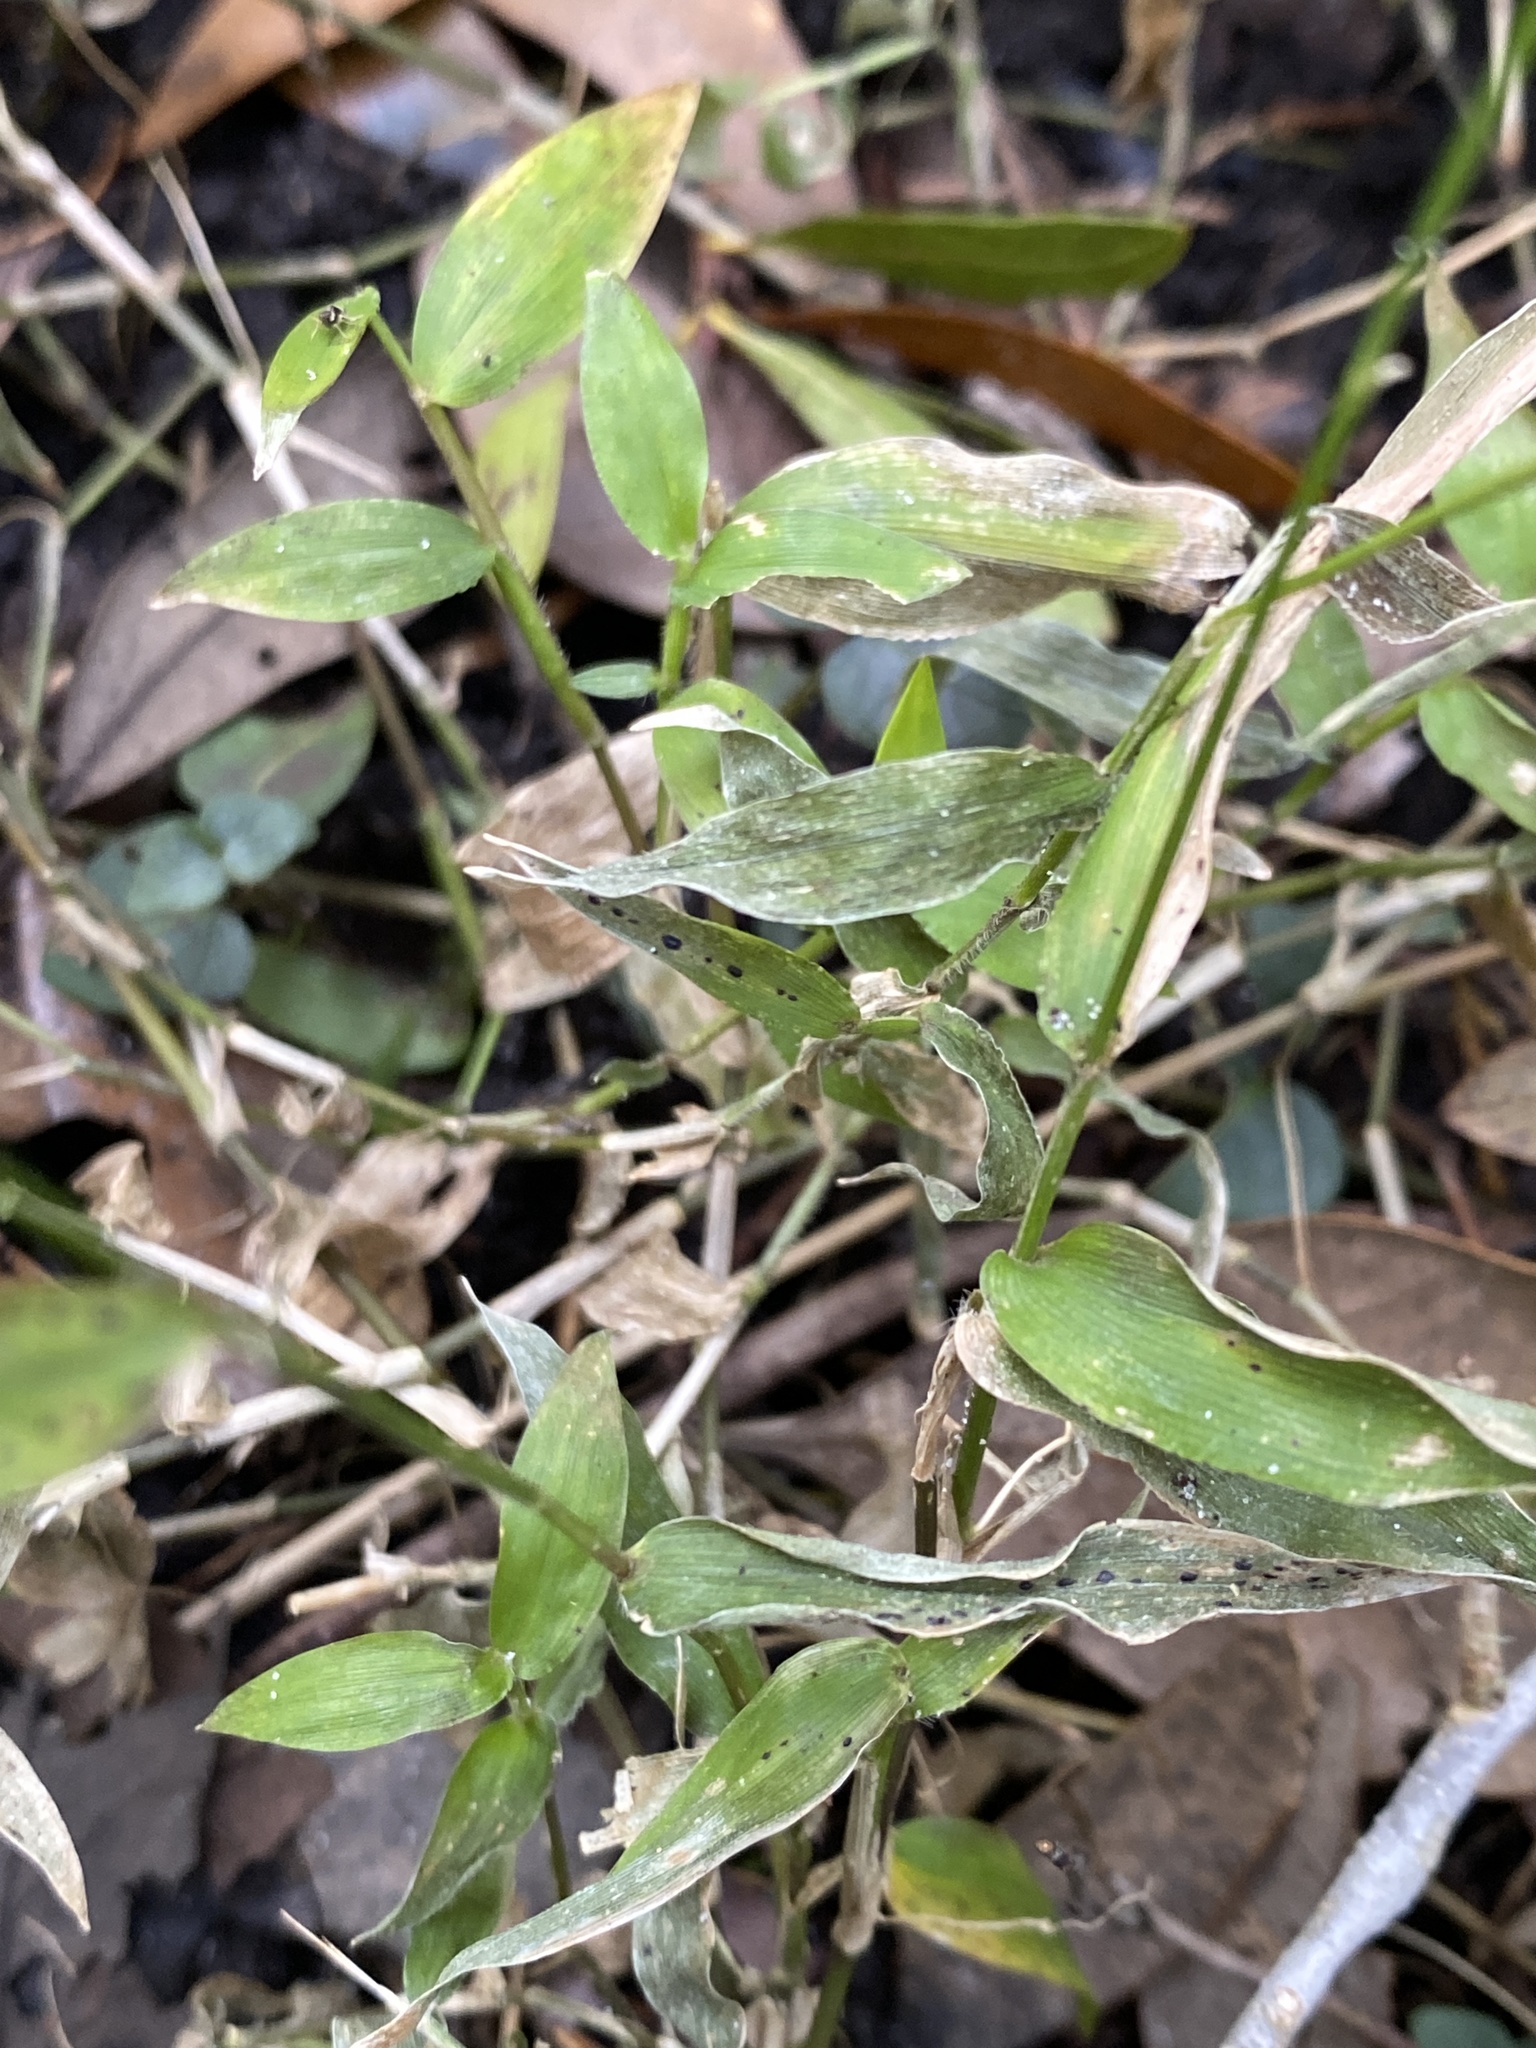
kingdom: Plantae
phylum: Tracheophyta
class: Liliopsida
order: Poales
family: Poaceae
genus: Oplismenus
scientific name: Oplismenus hirtellus
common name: Basketgrass
